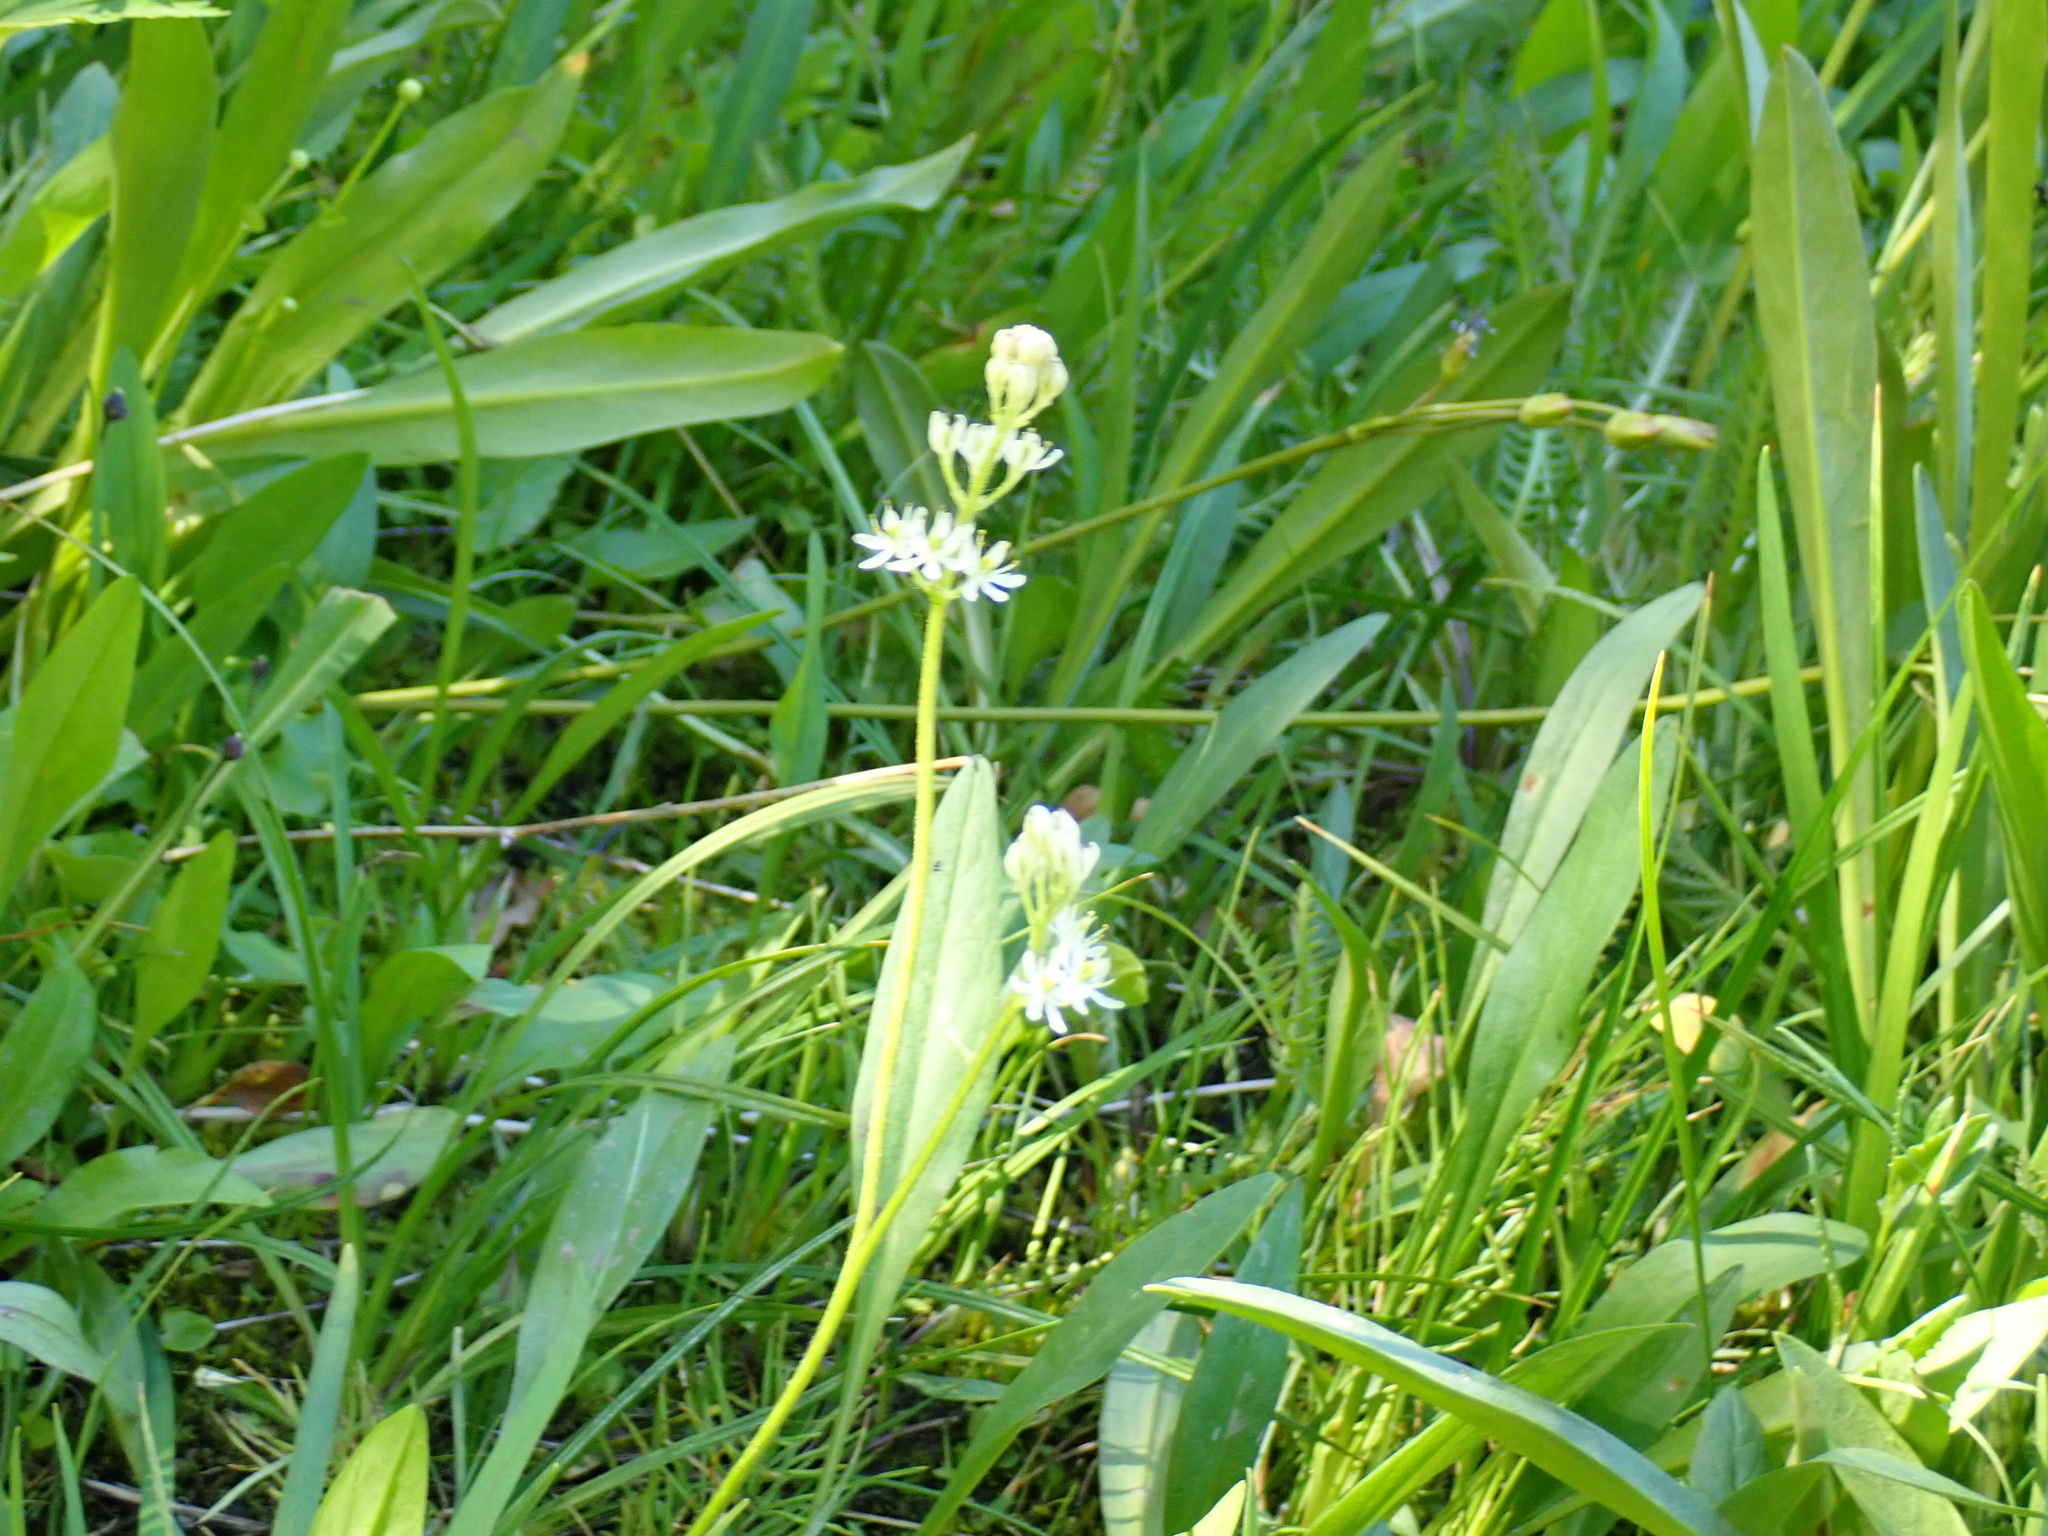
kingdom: Plantae
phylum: Tracheophyta
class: Liliopsida
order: Alismatales
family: Tofieldiaceae
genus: Triantha
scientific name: Triantha occidentalis
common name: Western false asphodel
